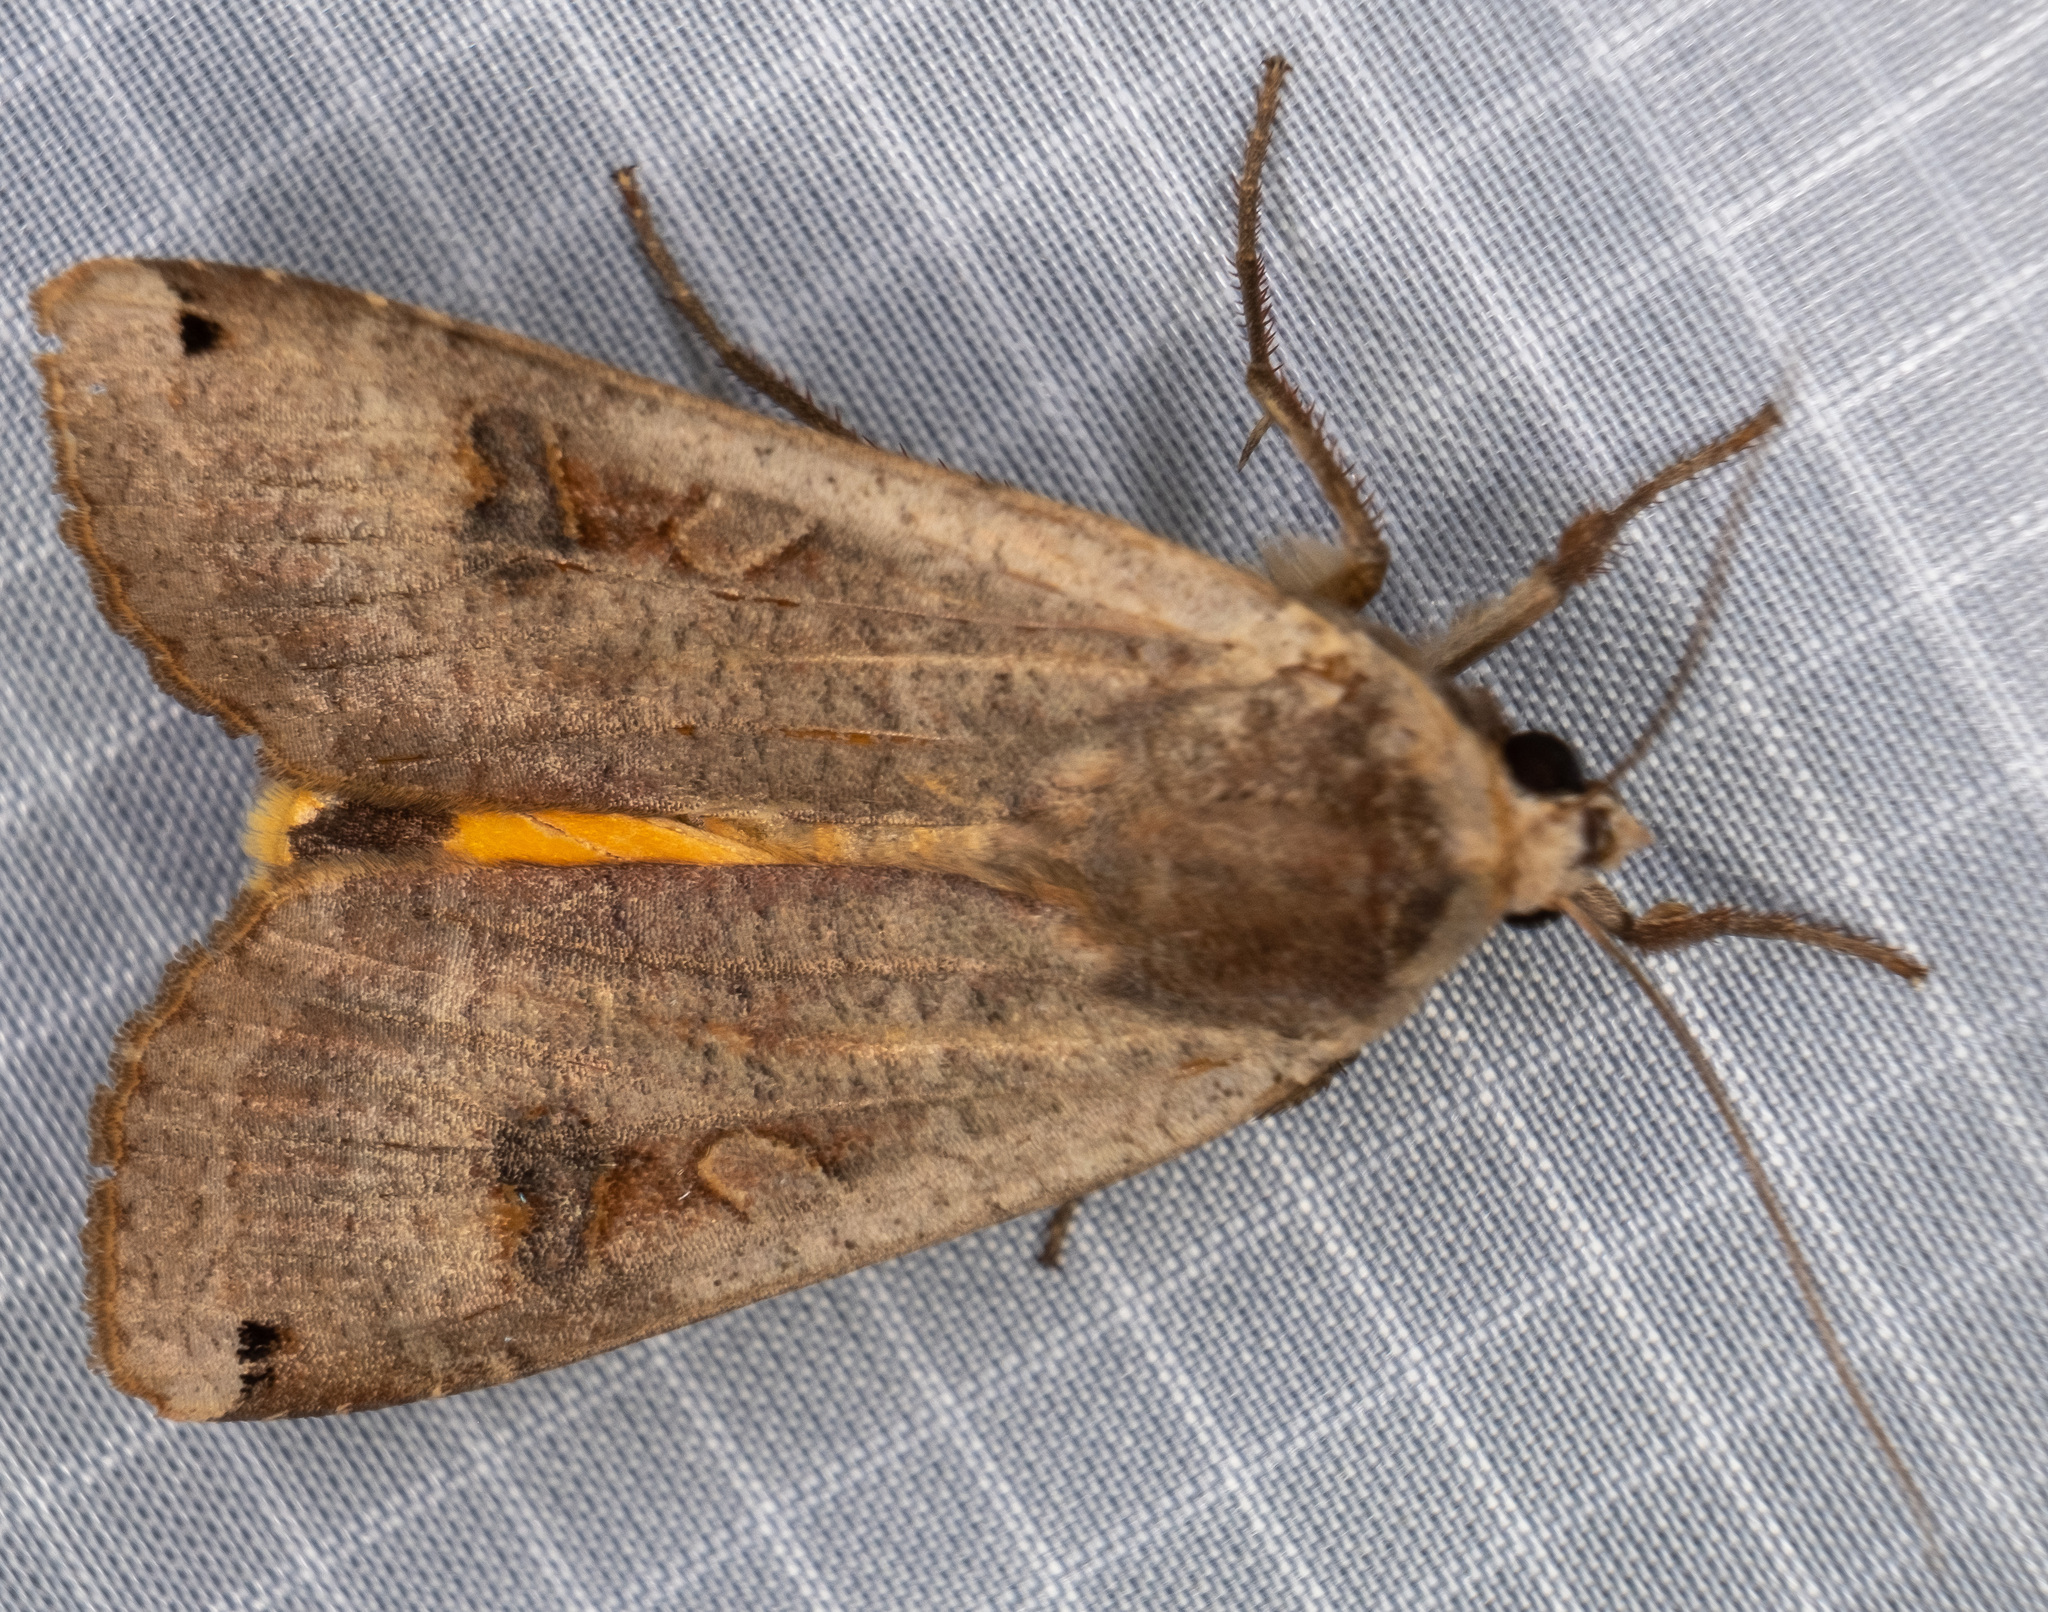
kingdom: Animalia
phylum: Arthropoda
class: Insecta
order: Lepidoptera
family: Noctuidae
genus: Noctua
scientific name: Noctua pronuba
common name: Large yellow underwing
